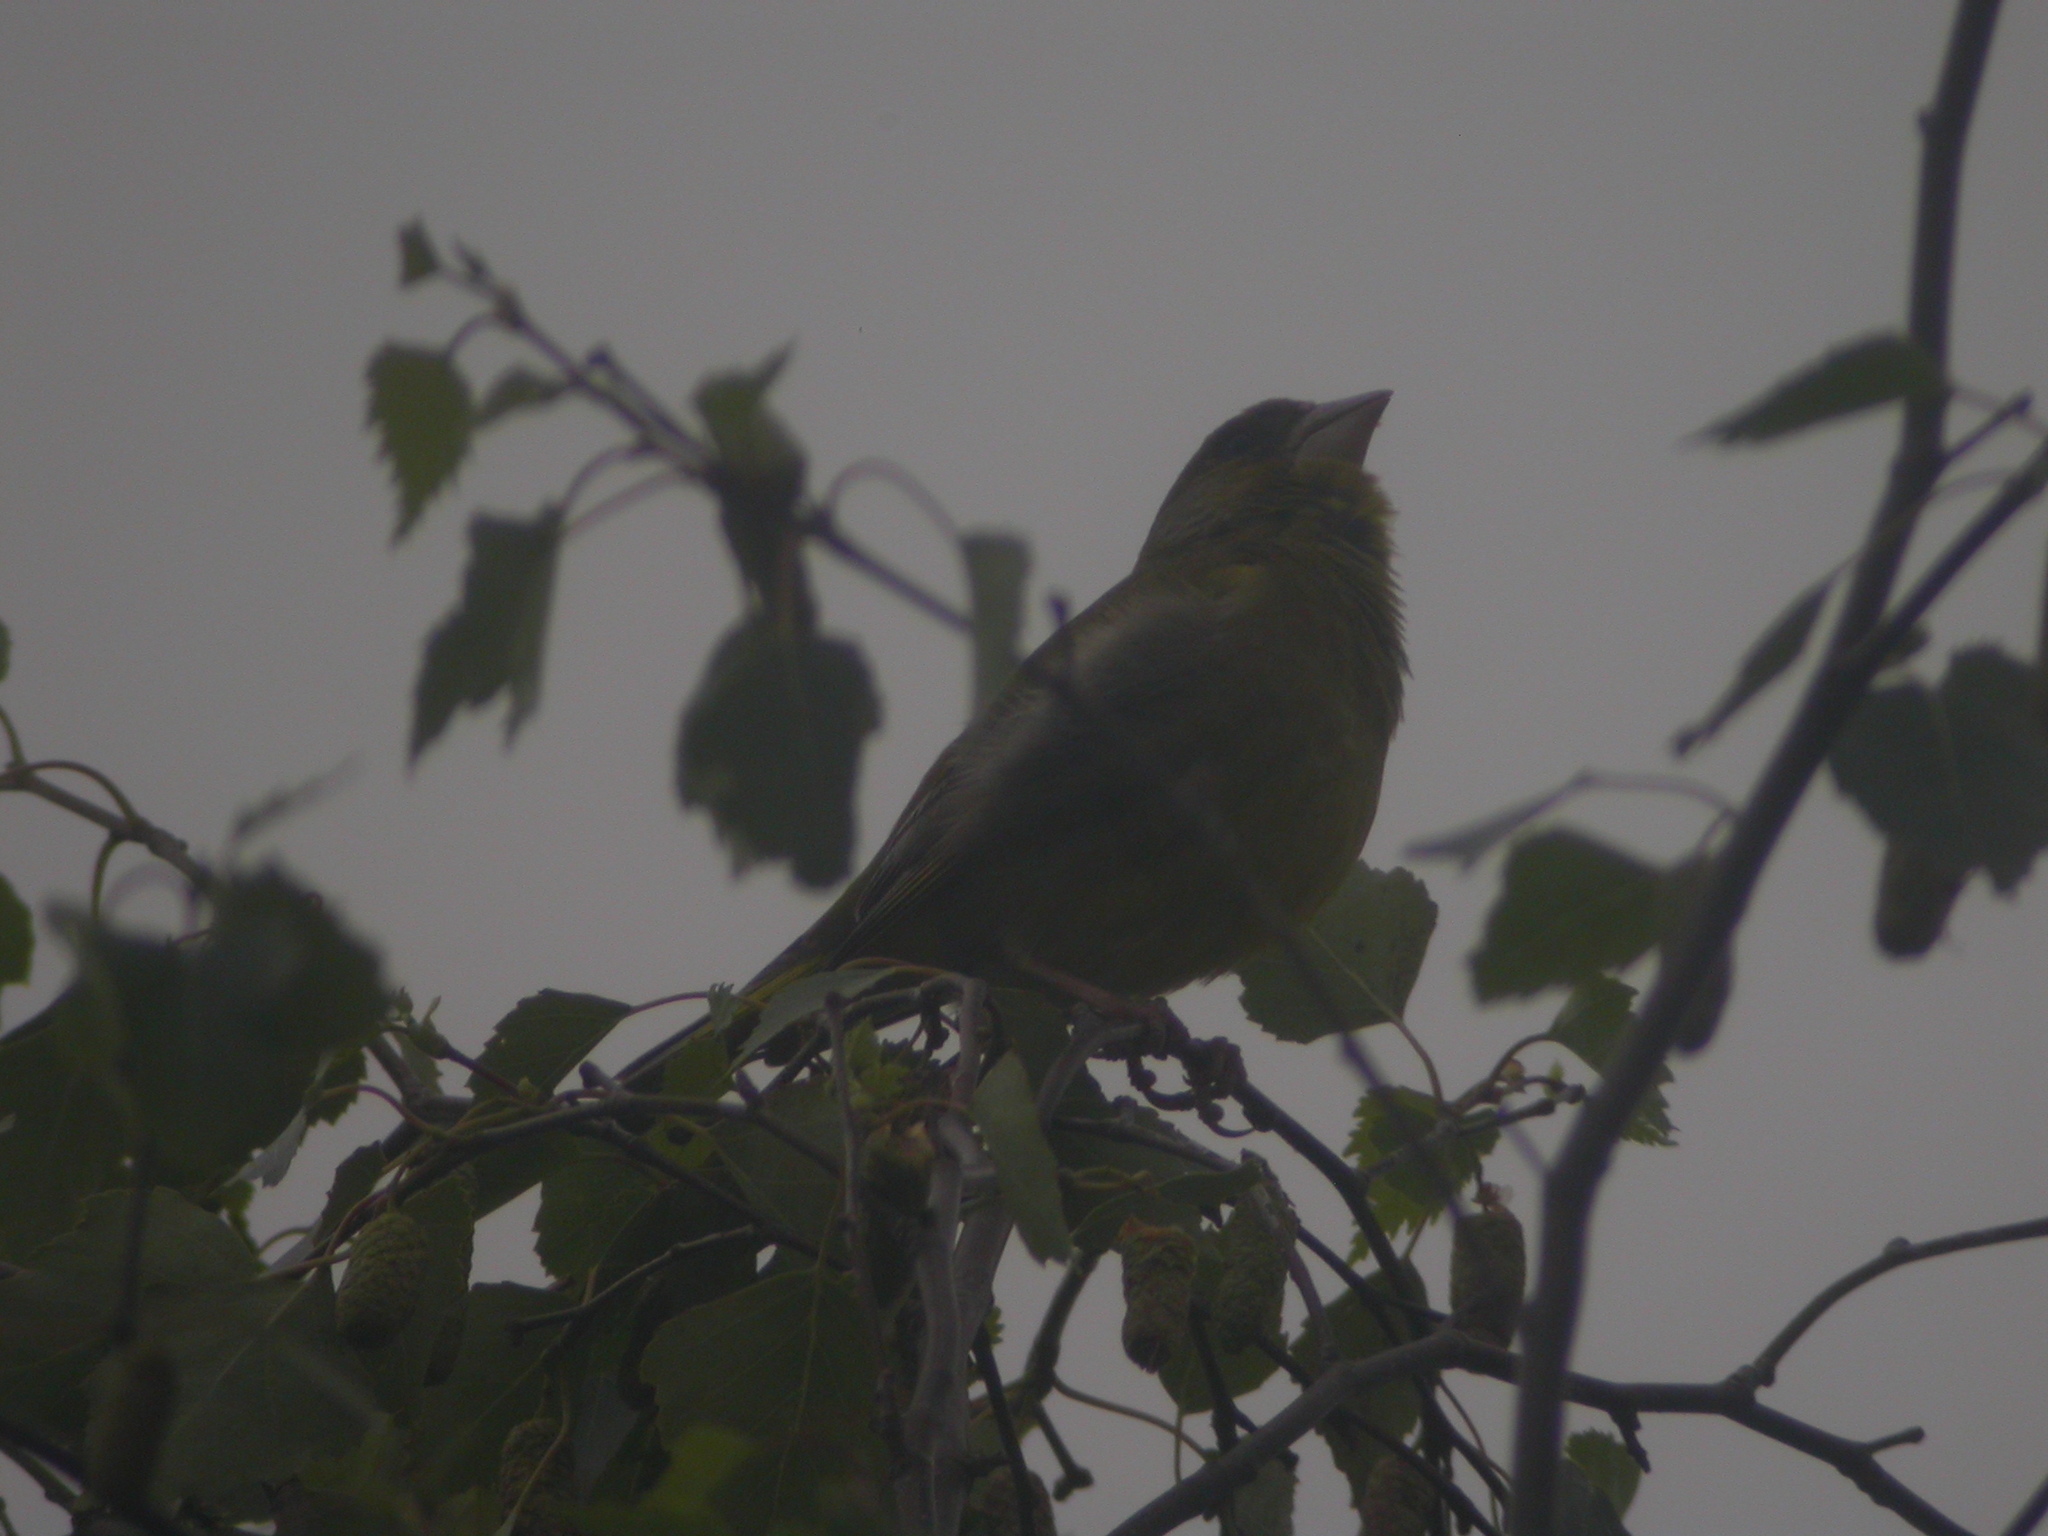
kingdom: Plantae
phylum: Tracheophyta
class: Liliopsida
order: Poales
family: Poaceae
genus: Chloris
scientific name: Chloris chloris
